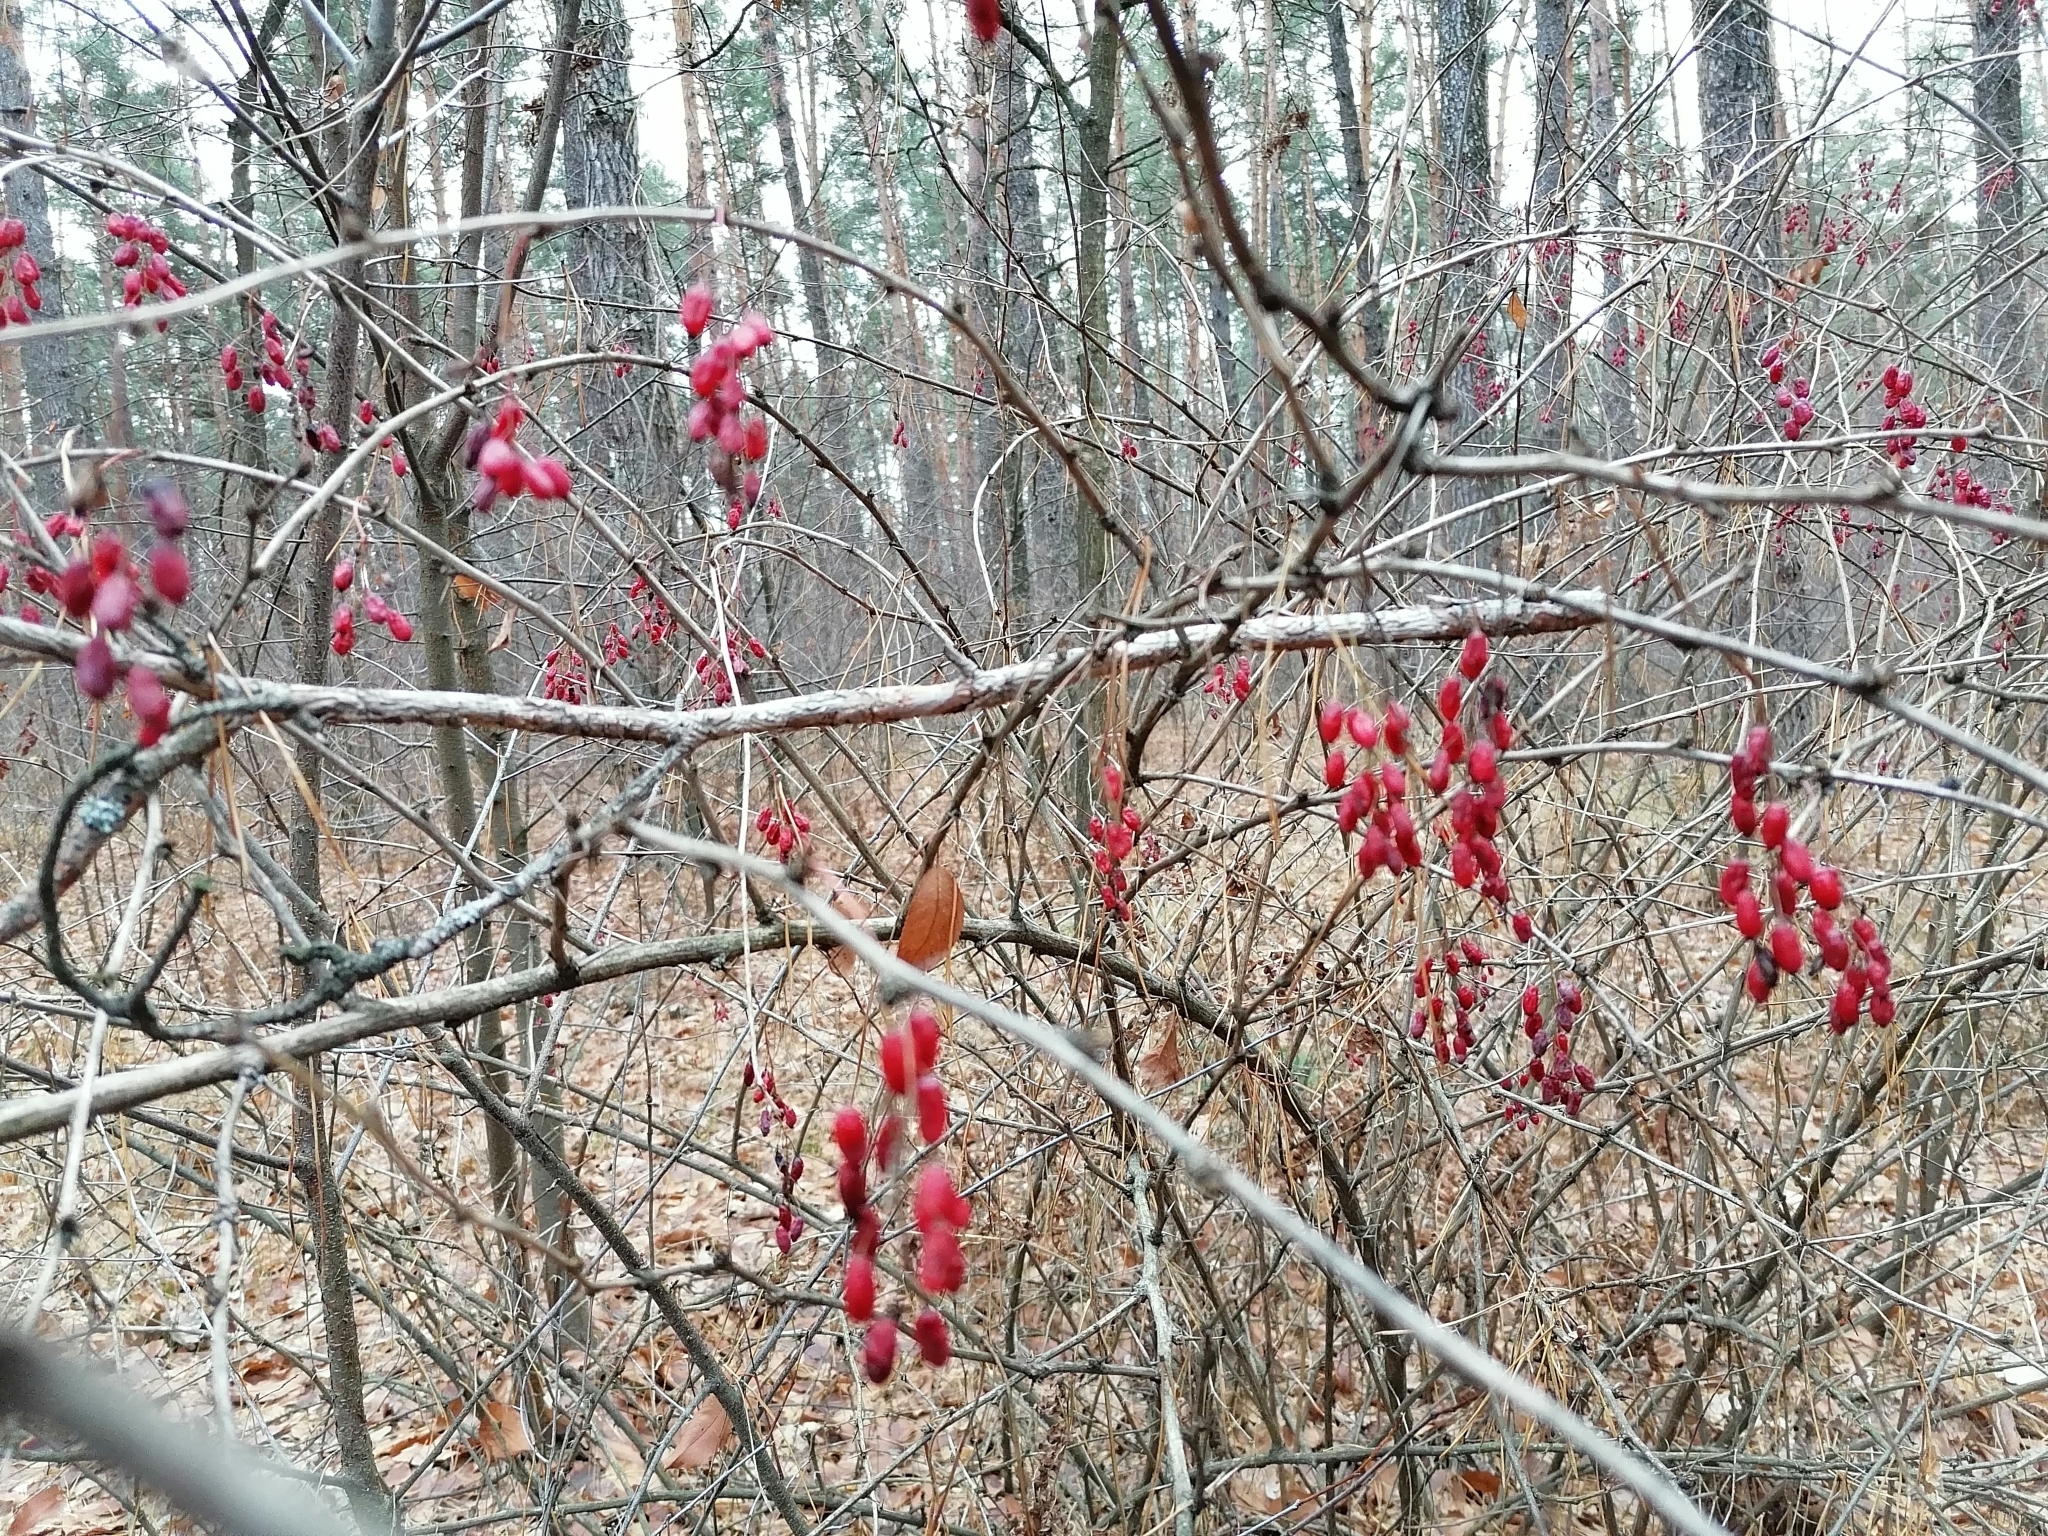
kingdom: Plantae
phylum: Tracheophyta
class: Magnoliopsida
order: Ranunculales
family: Berberidaceae
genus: Berberis
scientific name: Berberis vulgaris
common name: Barberry
